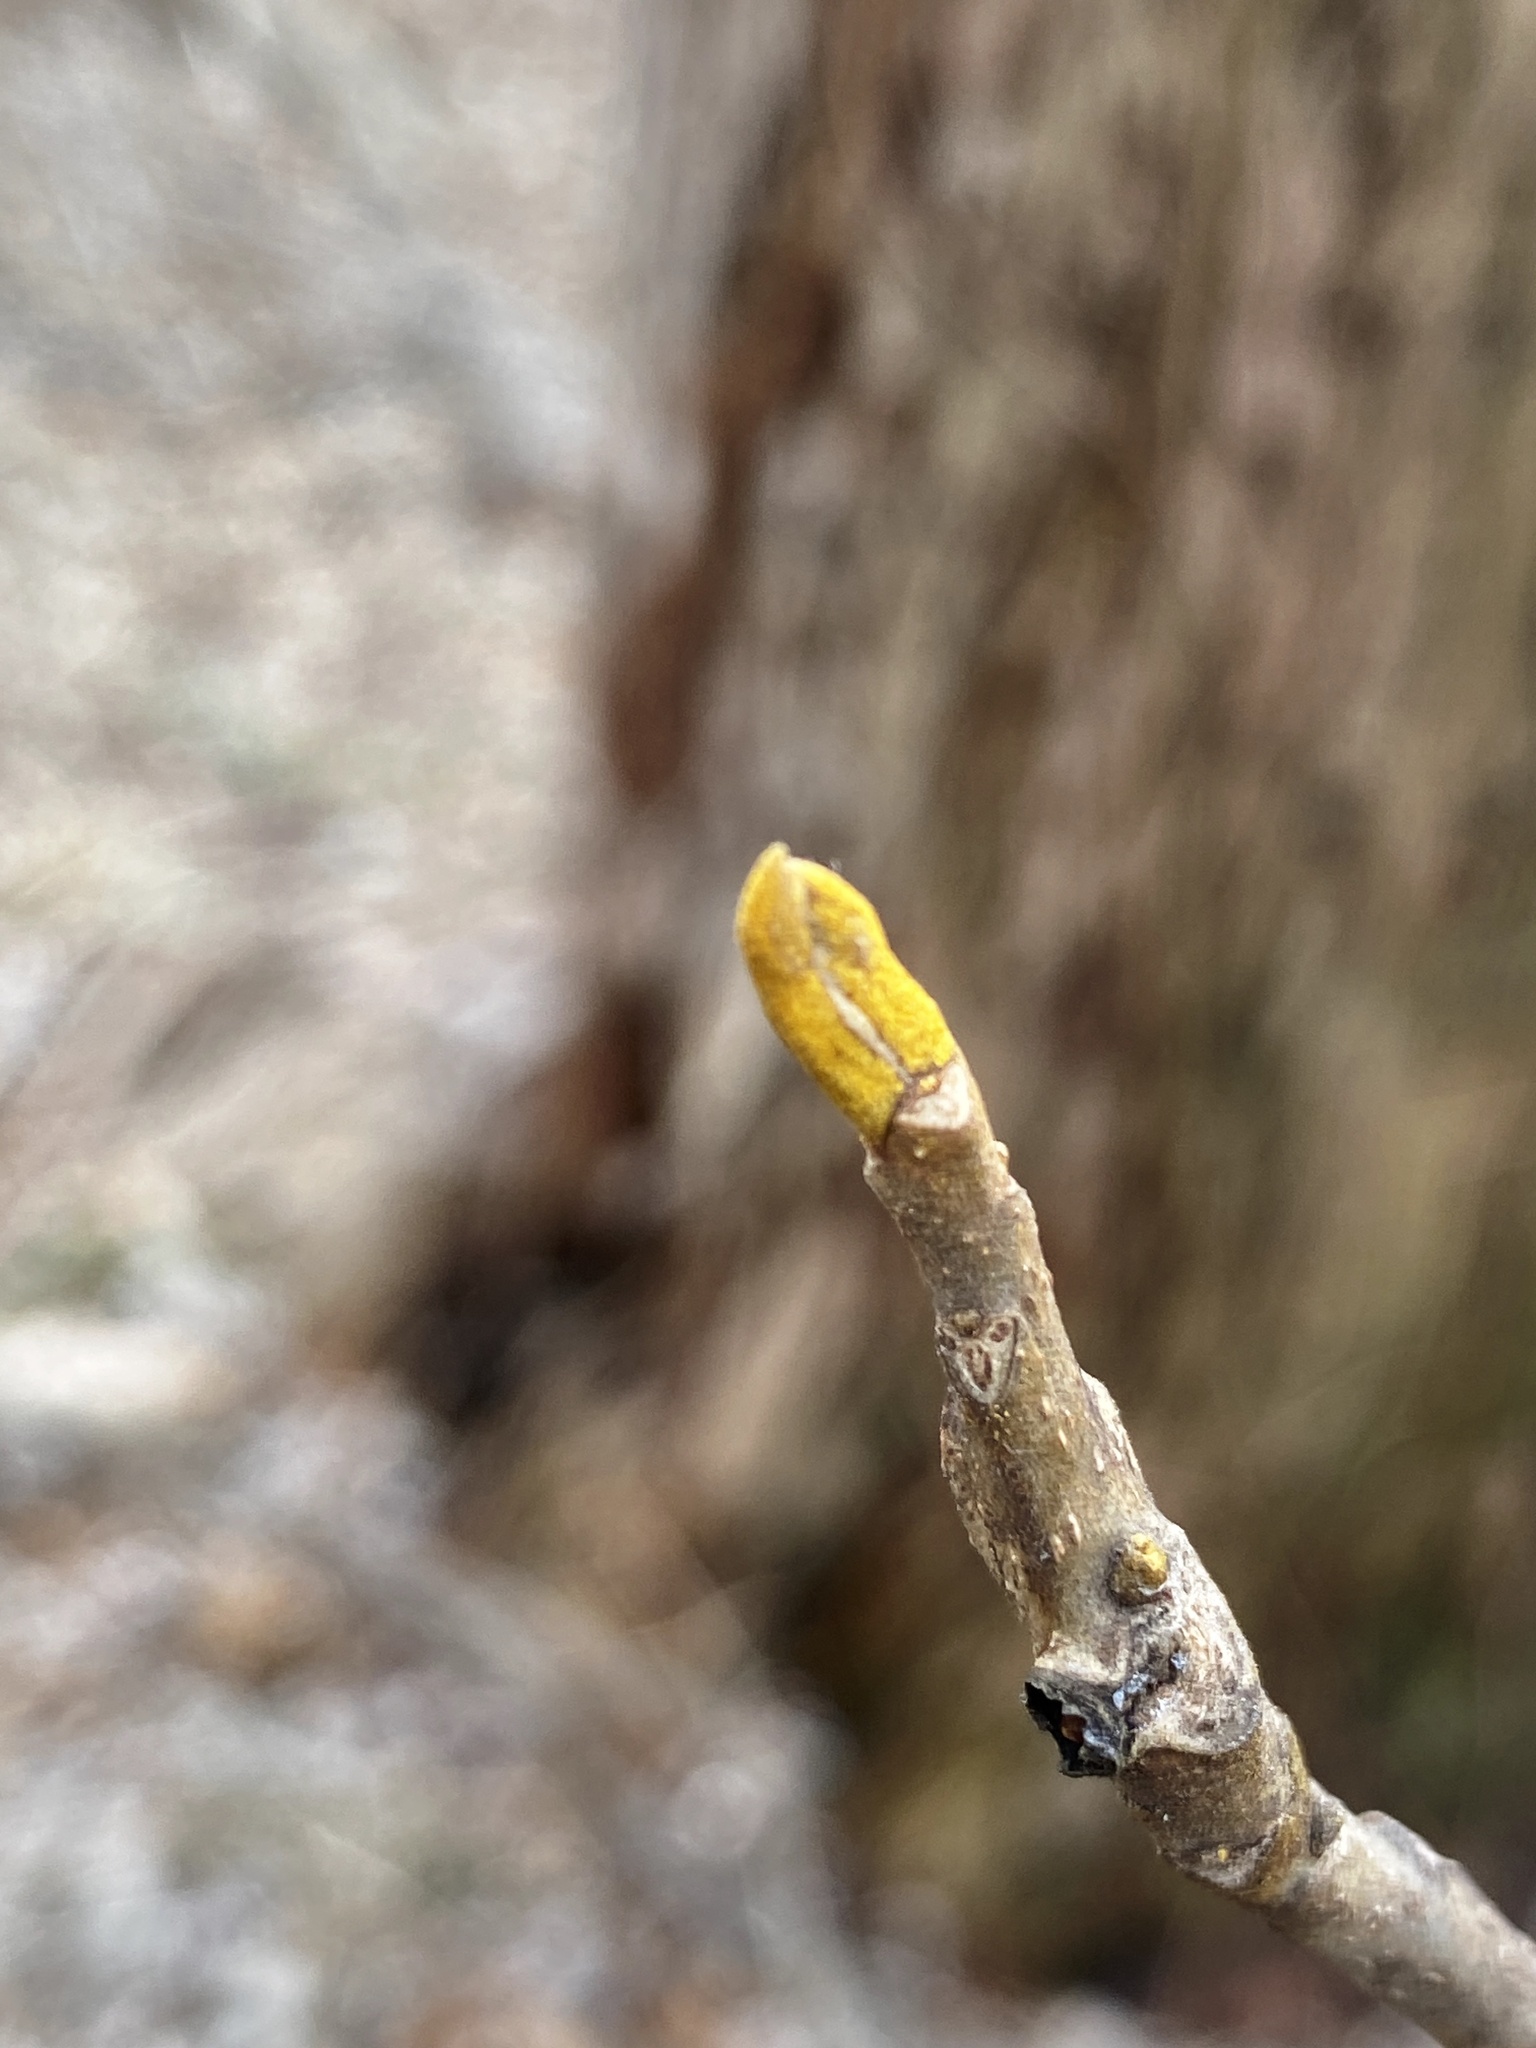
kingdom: Plantae
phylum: Tracheophyta
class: Magnoliopsida
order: Fagales
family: Juglandaceae
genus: Carya
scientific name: Carya cordiformis
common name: Bitternut hickory
